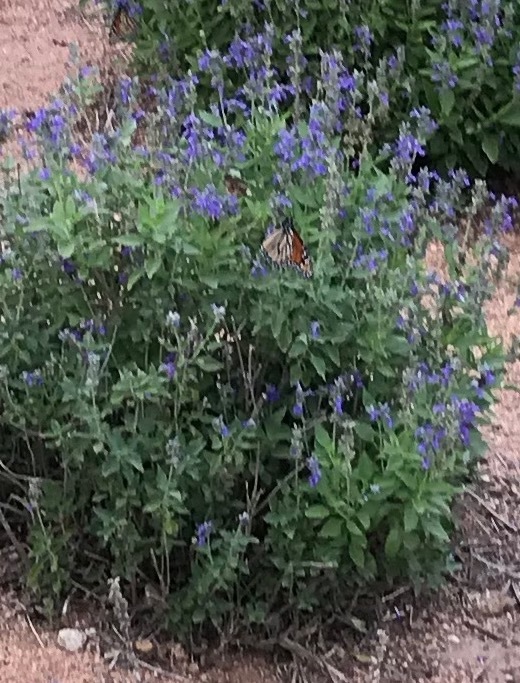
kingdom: Animalia
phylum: Arthropoda
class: Insecta
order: Lepidoptera
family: Nymphalidae
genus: Danaus
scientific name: Danaus plexippus
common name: Monarch
